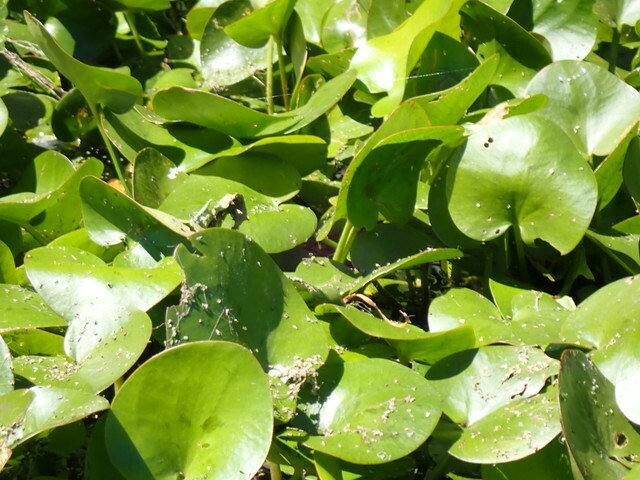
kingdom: Plantae
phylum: Tracheophyta
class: Liliopsida
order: Alismatales
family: Hydrocharitaceae
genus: Hydrocharis
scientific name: Hydrocharis spongia
